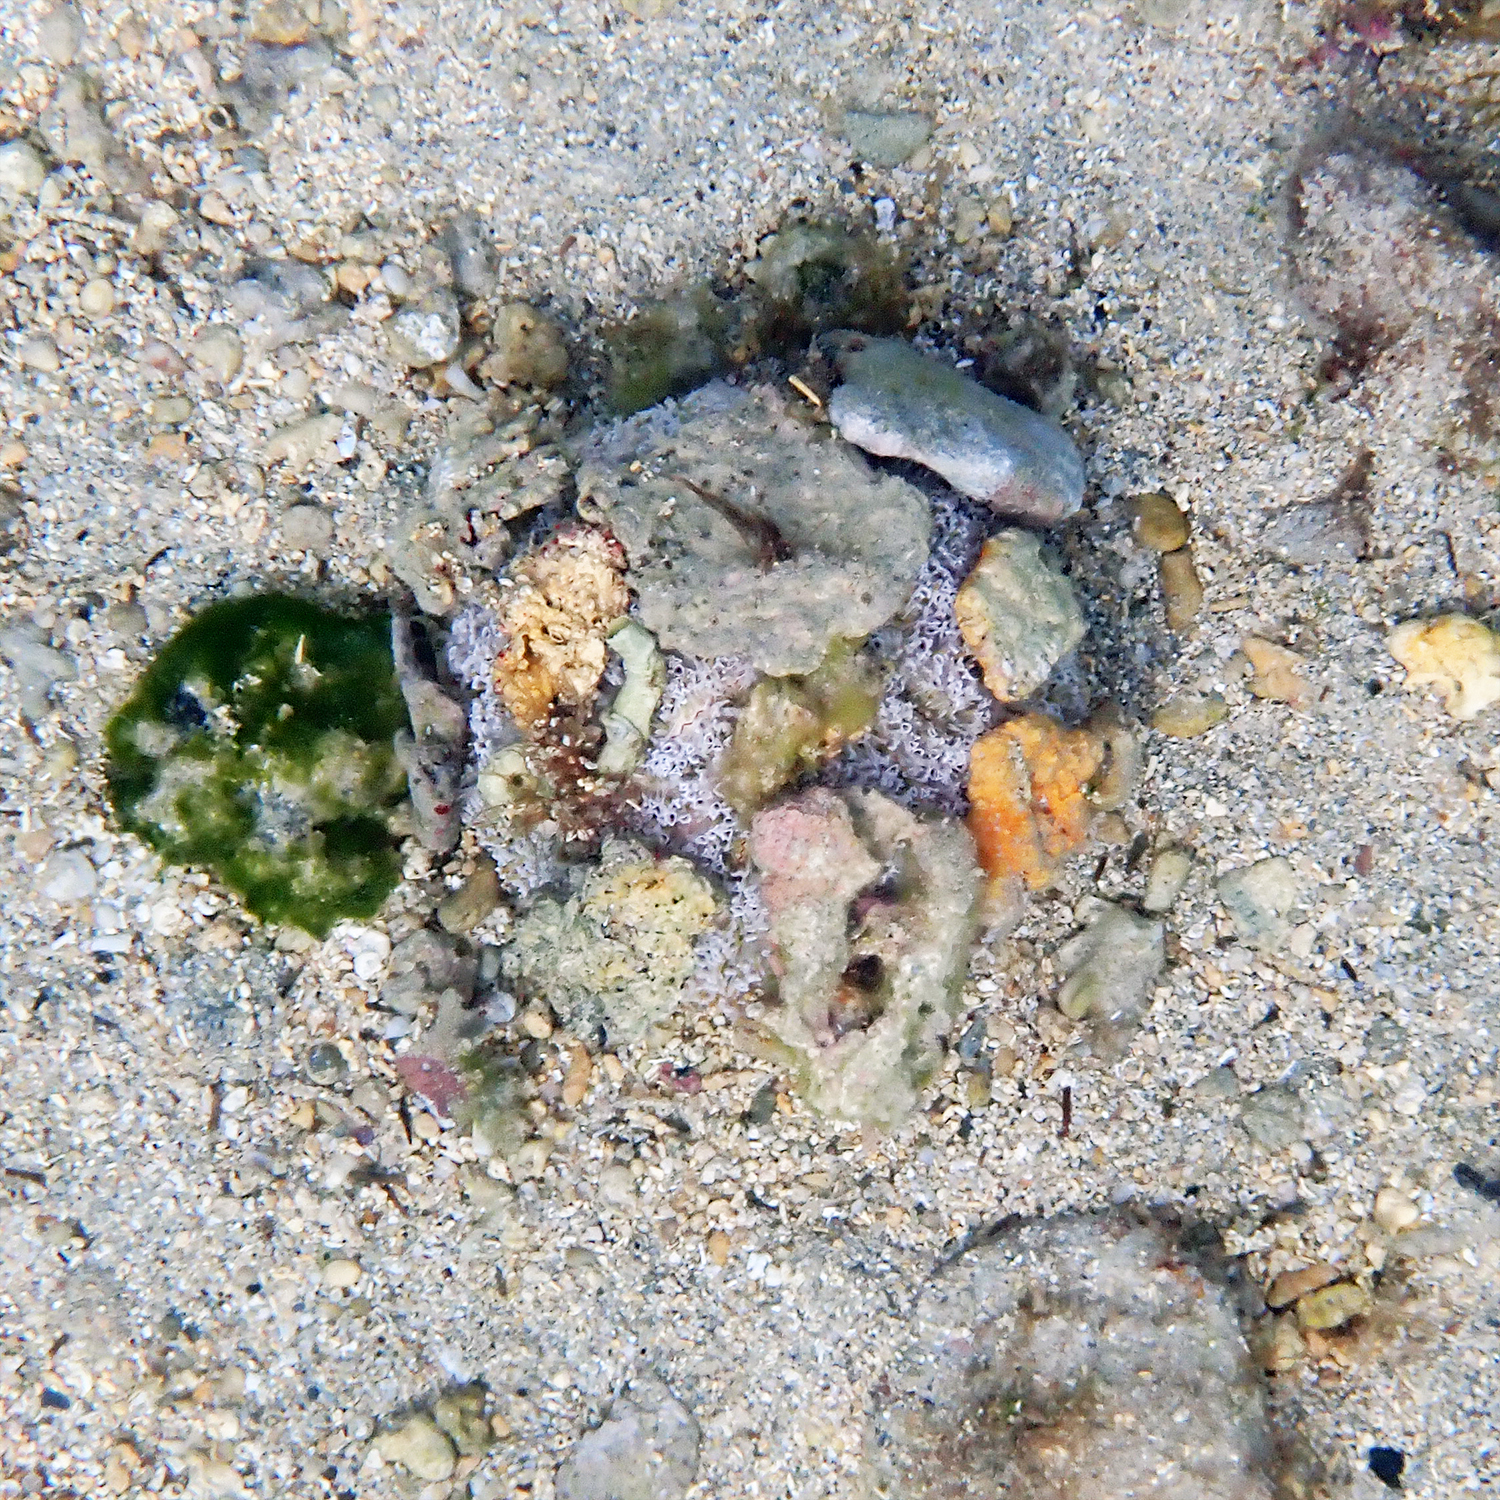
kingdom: Animalia
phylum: Echinodermata
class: Echinoidea
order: Camarodonta
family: Toxopneustidae
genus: Toxopneustes
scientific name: Toxopneustes pileolus
